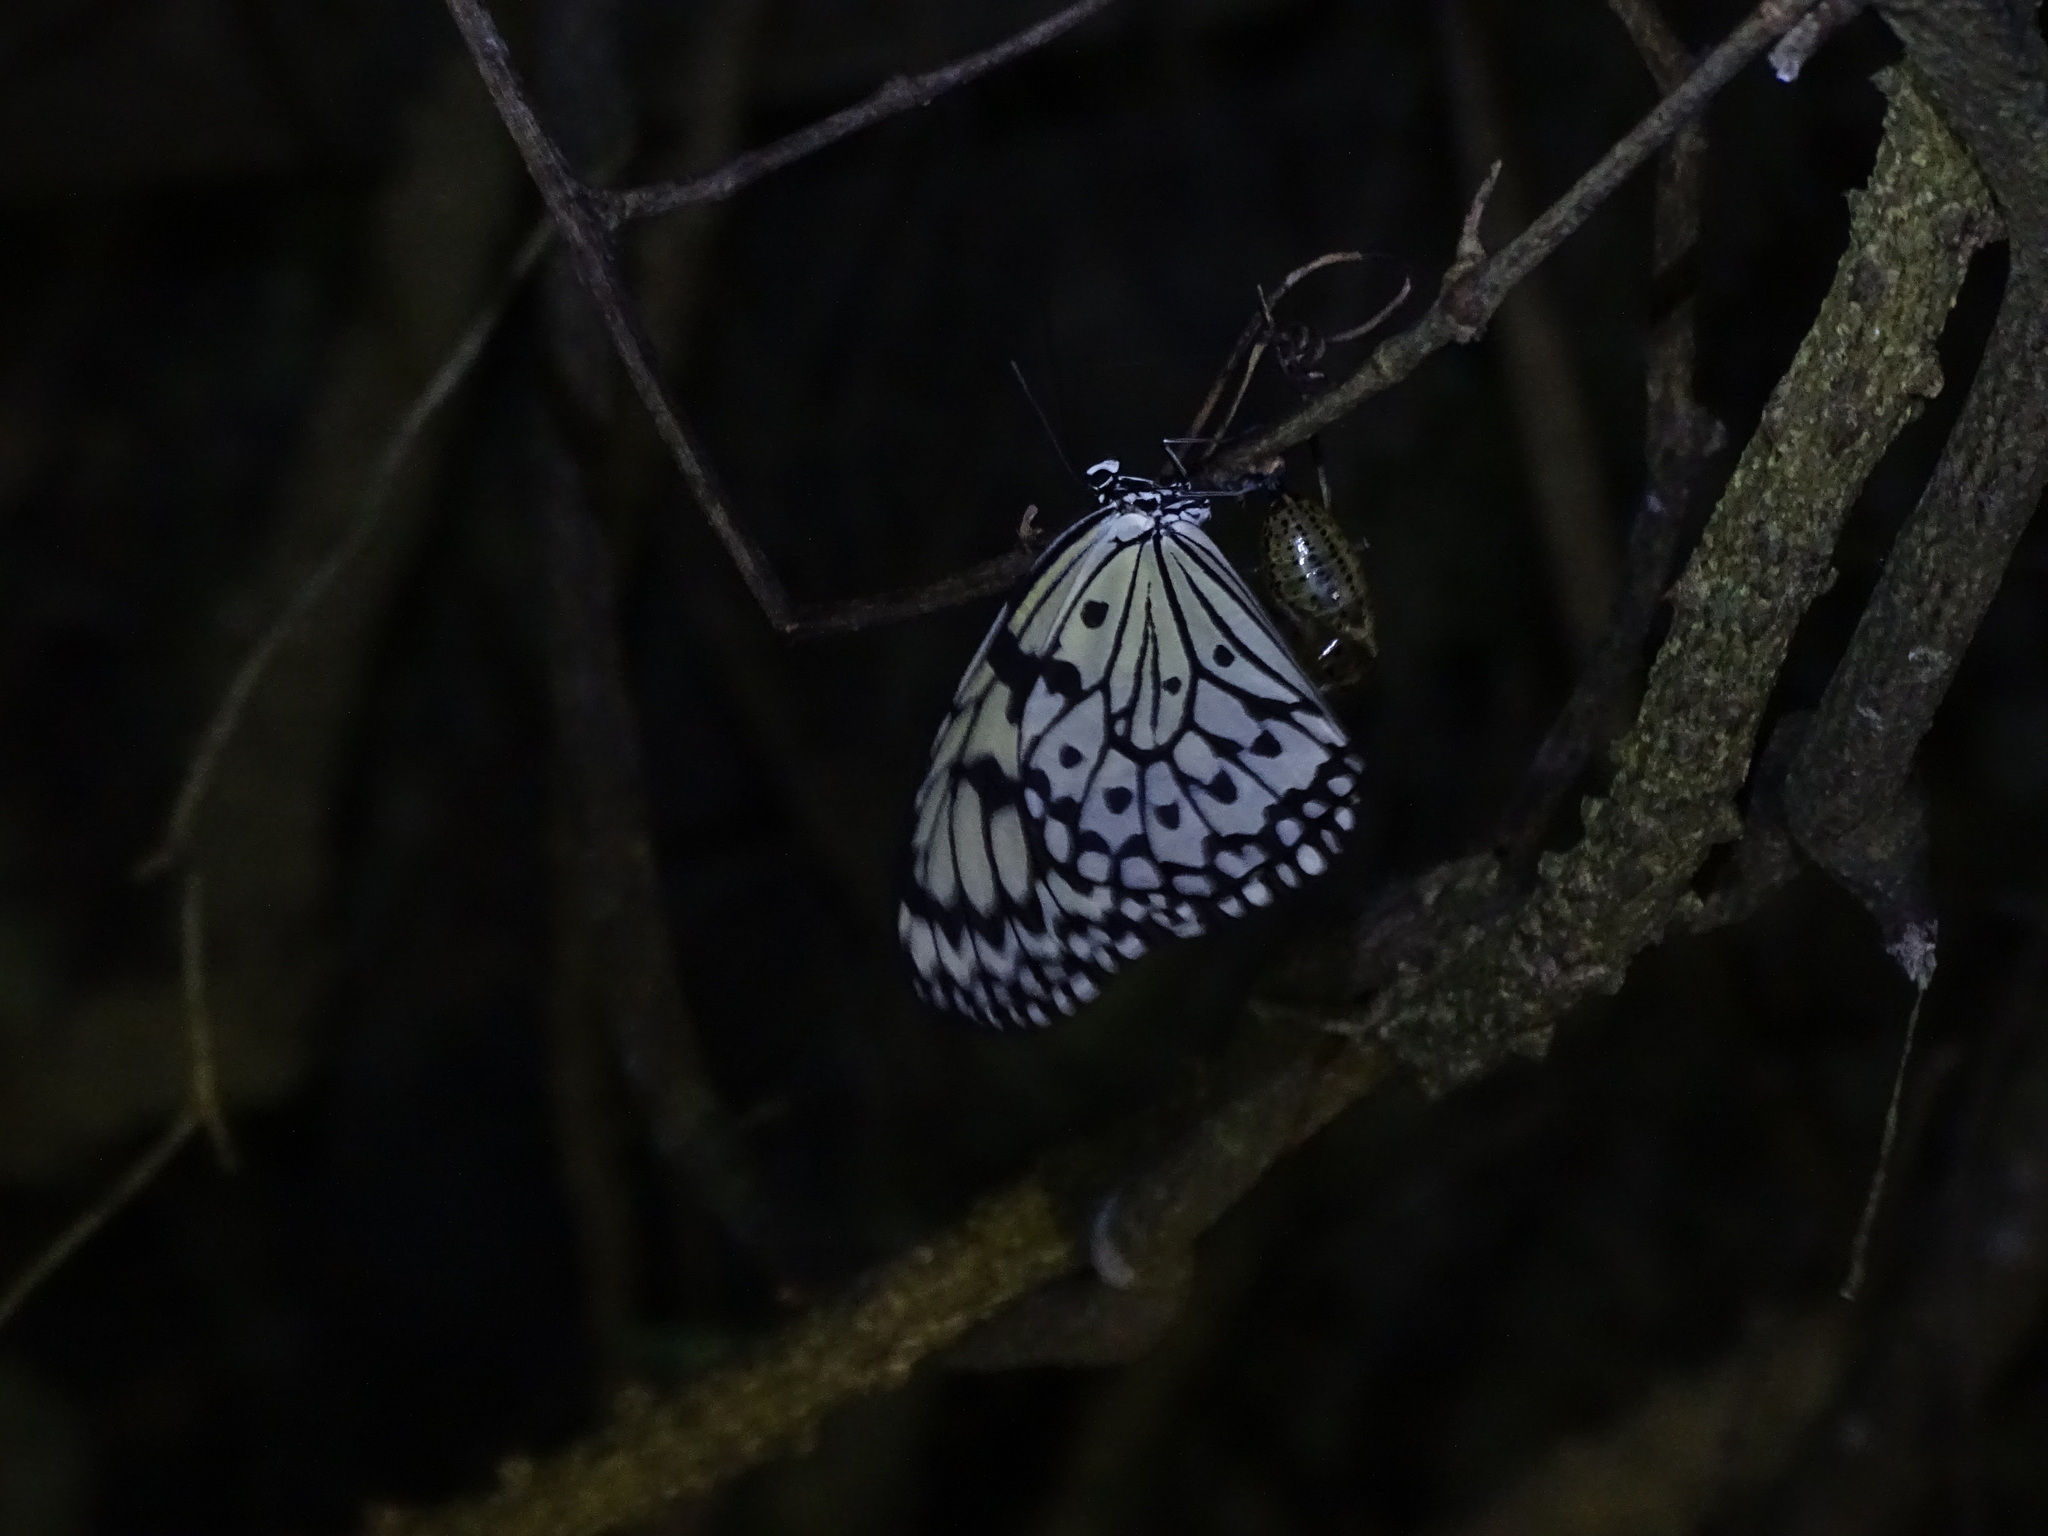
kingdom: Animalia
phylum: Arthropoda
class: Insecta
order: Lepidoptera
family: Nymphalidae
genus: Idea
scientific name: Idea leuconoe
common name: Rice paper butterfly
